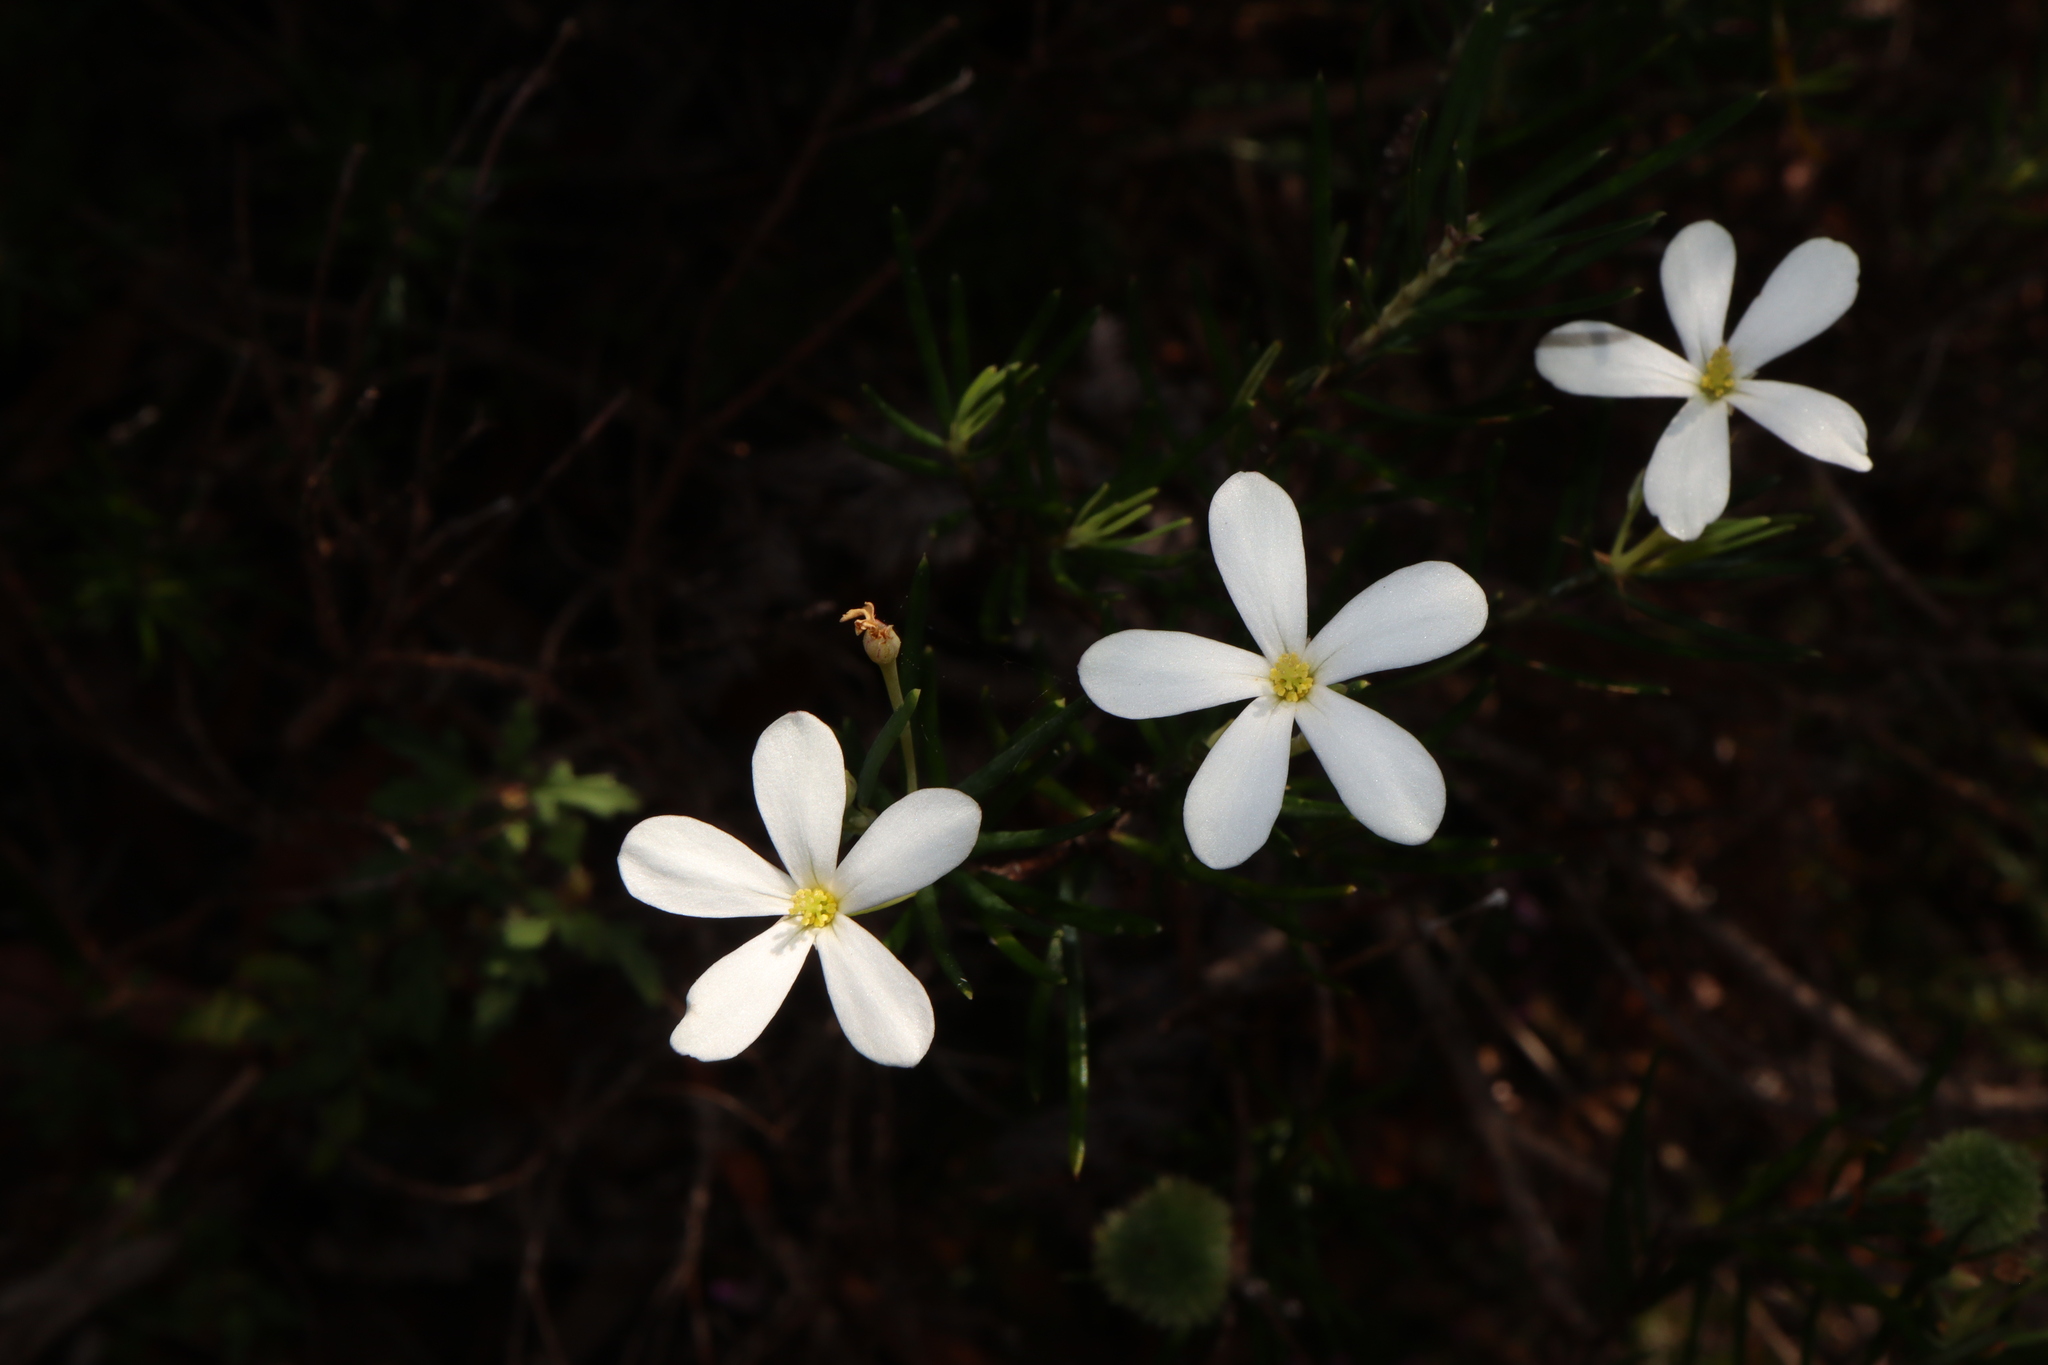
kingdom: Plantae
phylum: Tracheophyta
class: Magnoliopsida
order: Malpighiales
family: Euphorbiaceae
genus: Ricinocarpos
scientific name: Ricinocarpos pinifolius
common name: Weddingbush
